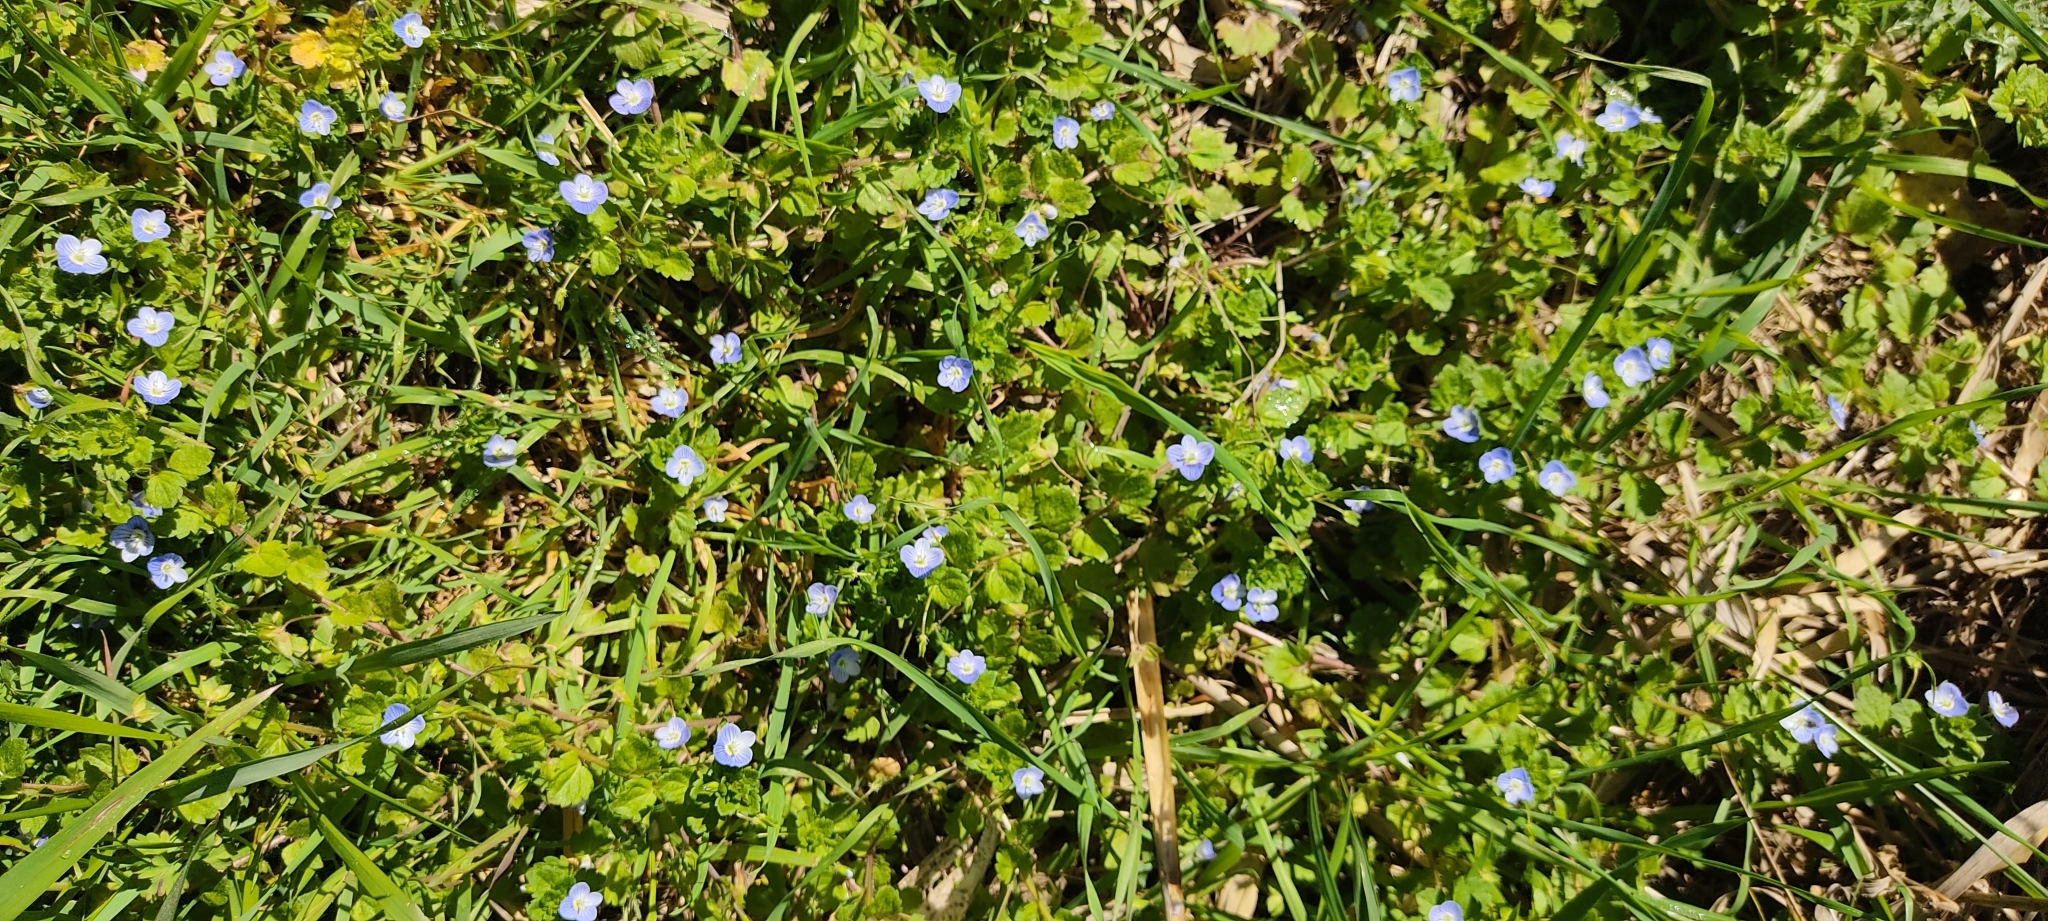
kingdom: Plantae
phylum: Tracheophyta
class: Magnoliopsida
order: Lamiales
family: Plantaginaceae
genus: Veronica
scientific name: Veronica persica
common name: Common field-speedwell
